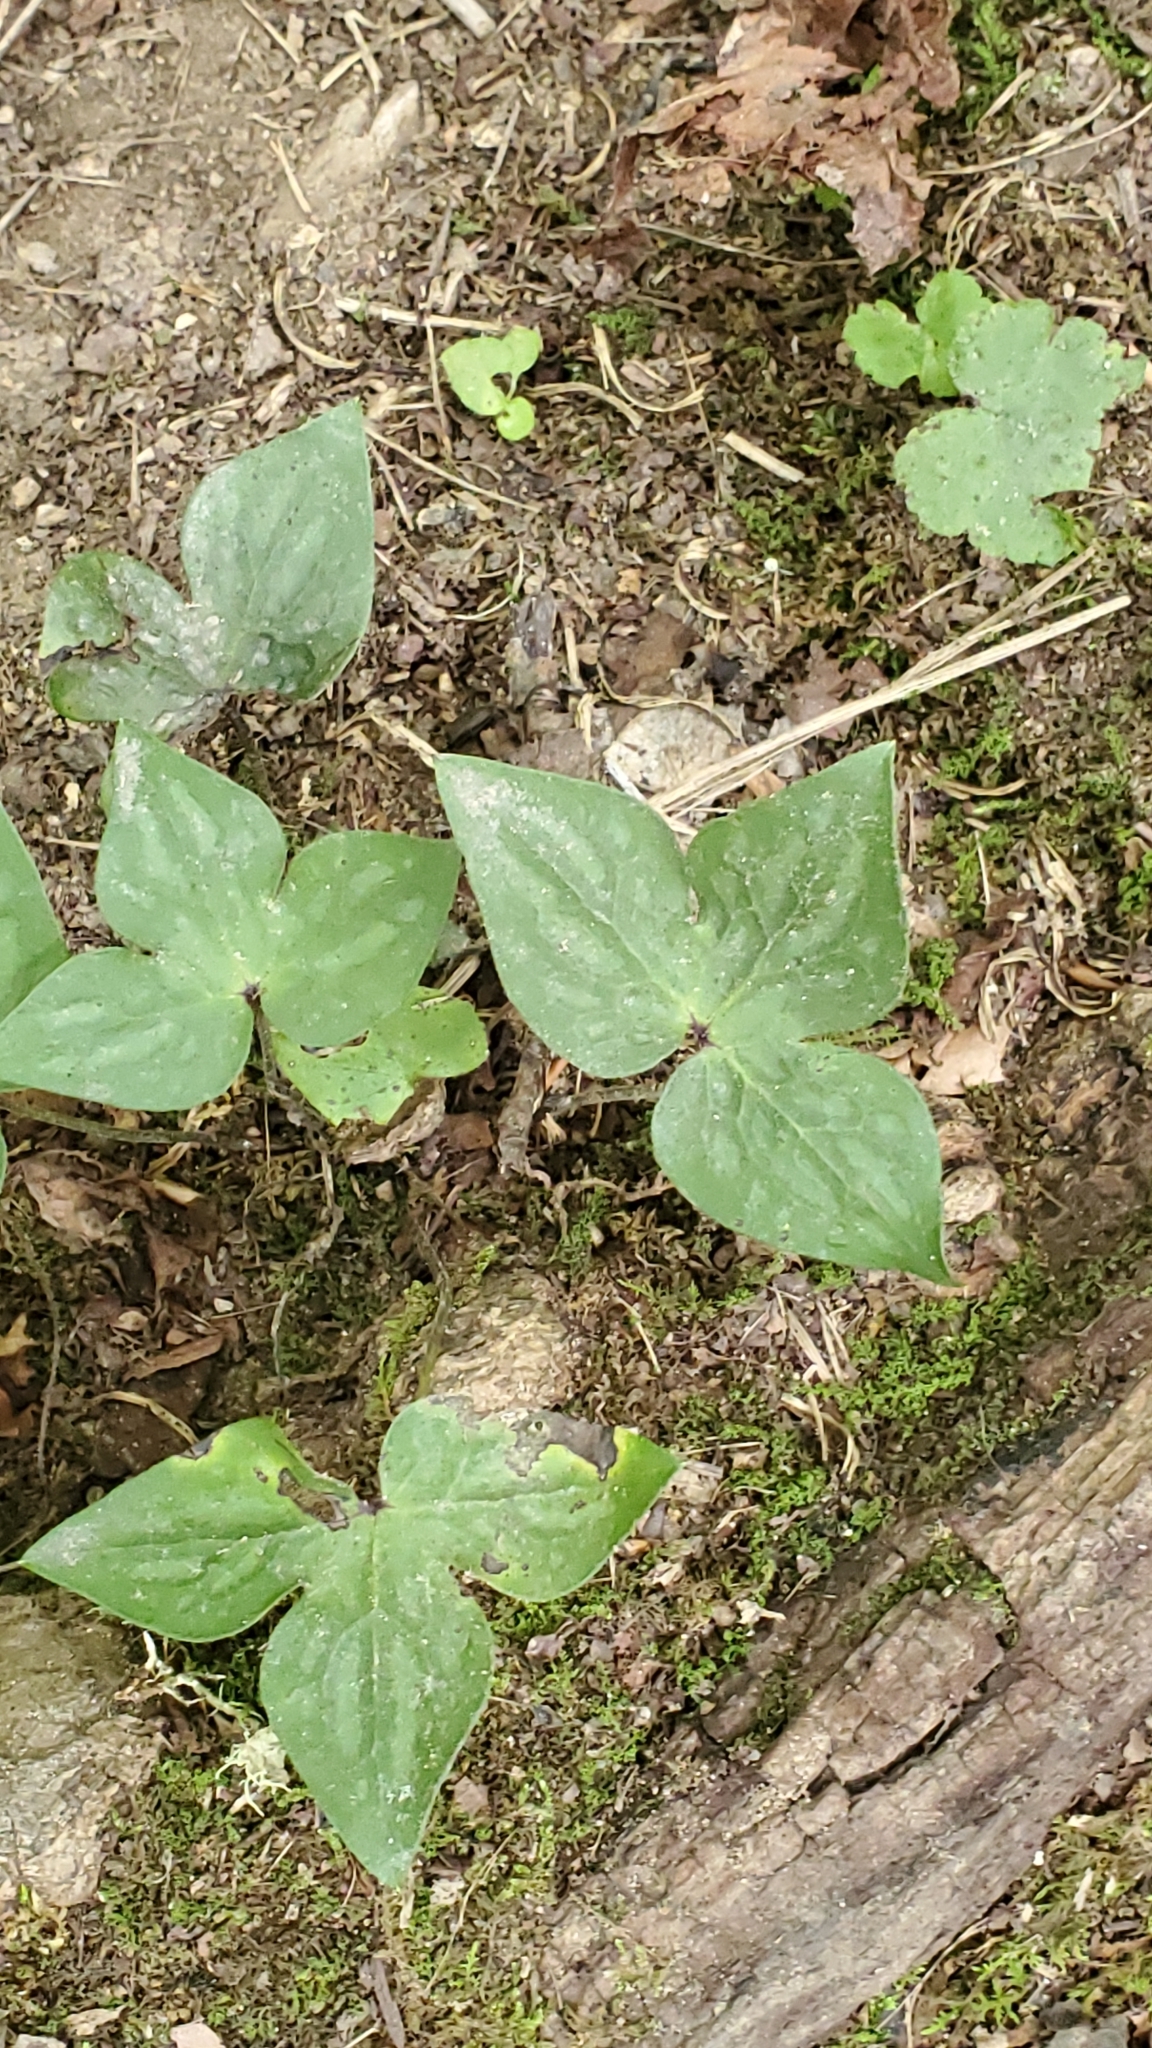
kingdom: Plantae
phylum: Tracheophyta
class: Magnoliopsida
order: Ranunculales
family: Ranunculaceae
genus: Hepatica
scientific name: Hepatica acutiloba
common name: Sharp-lobed hepatica
